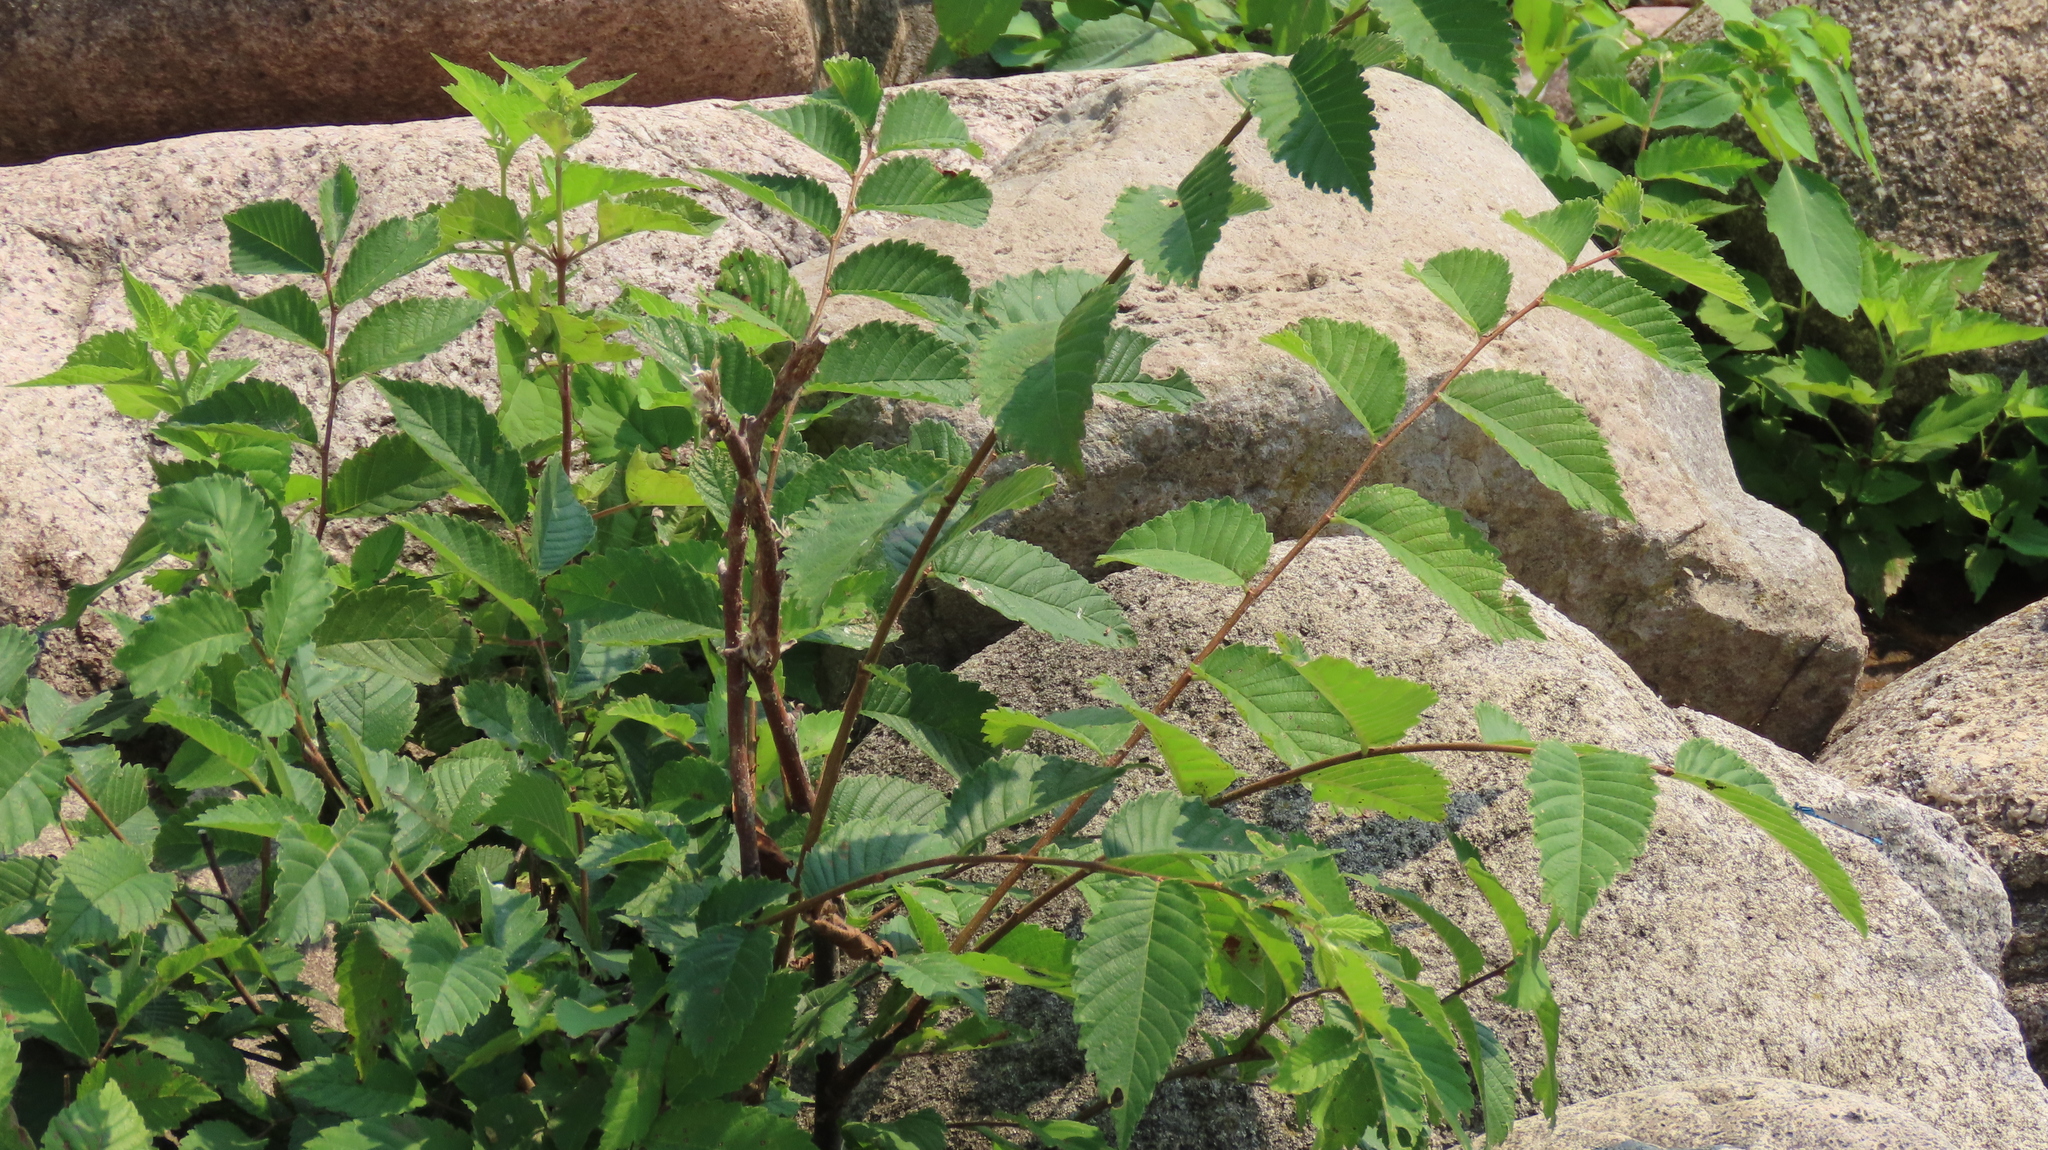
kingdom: Plantae
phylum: Tracheophyta
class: Magnoliopsida
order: Rosales
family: Ulmaceae
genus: Ulmus
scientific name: Ulmus pumila
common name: Siberian elm
